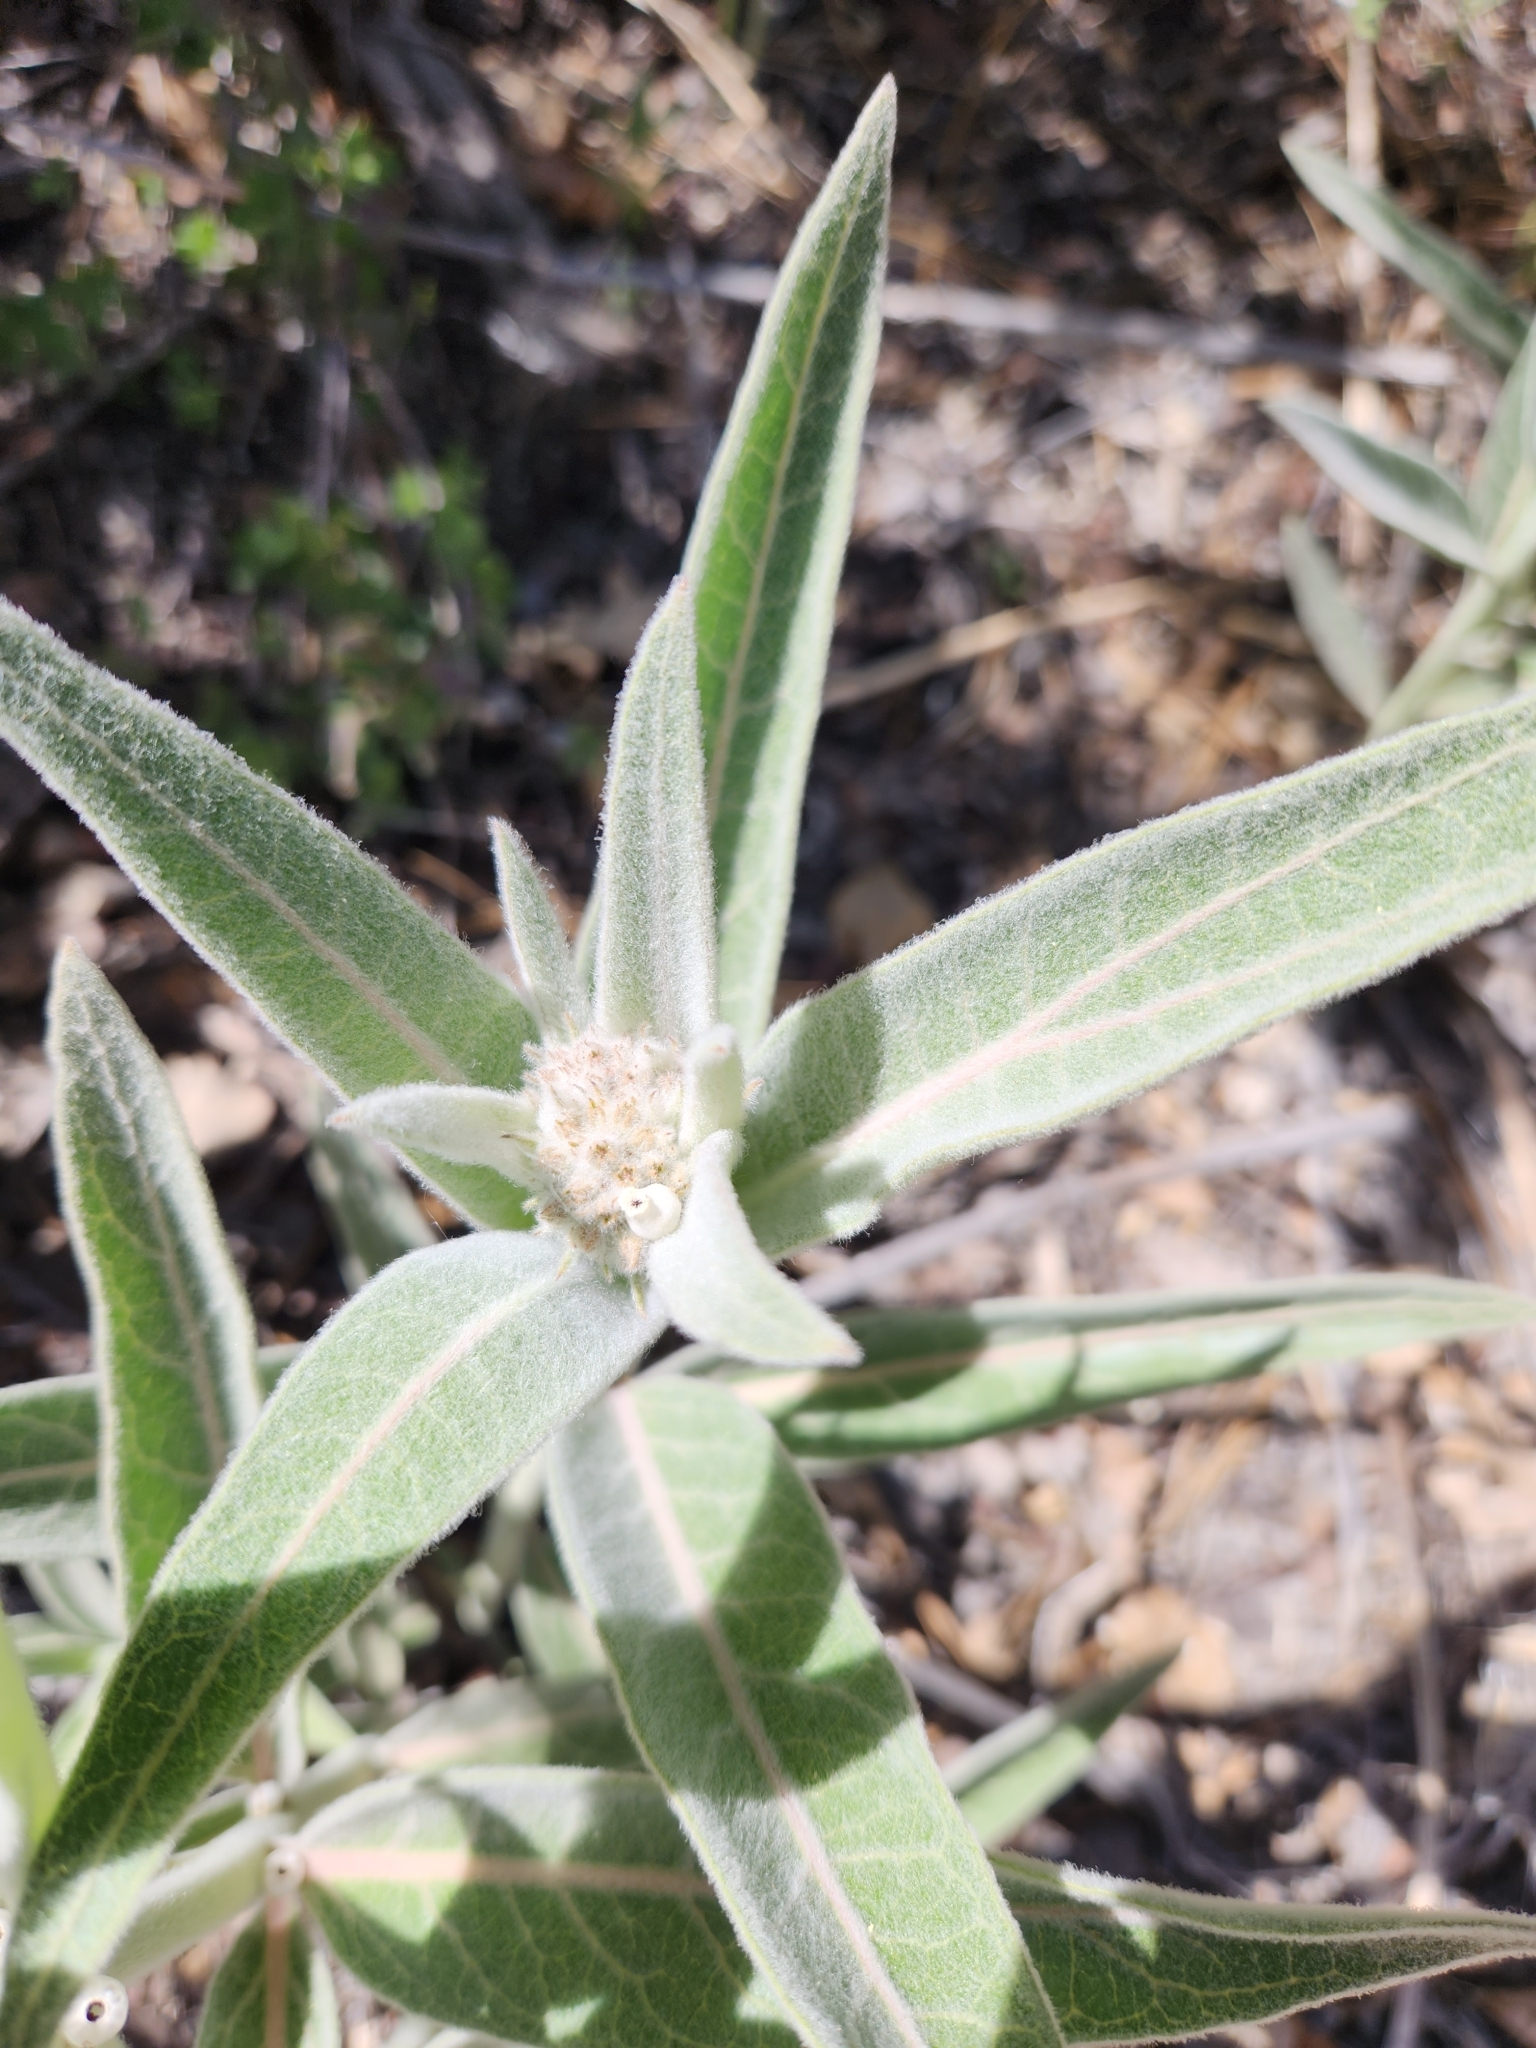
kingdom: Plantae
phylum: Tracheophyta
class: Magnoliopsida
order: Gentianales
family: Apocynaceae
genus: Asclepias
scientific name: Asclepias eriocarpa
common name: Indian milkweed
